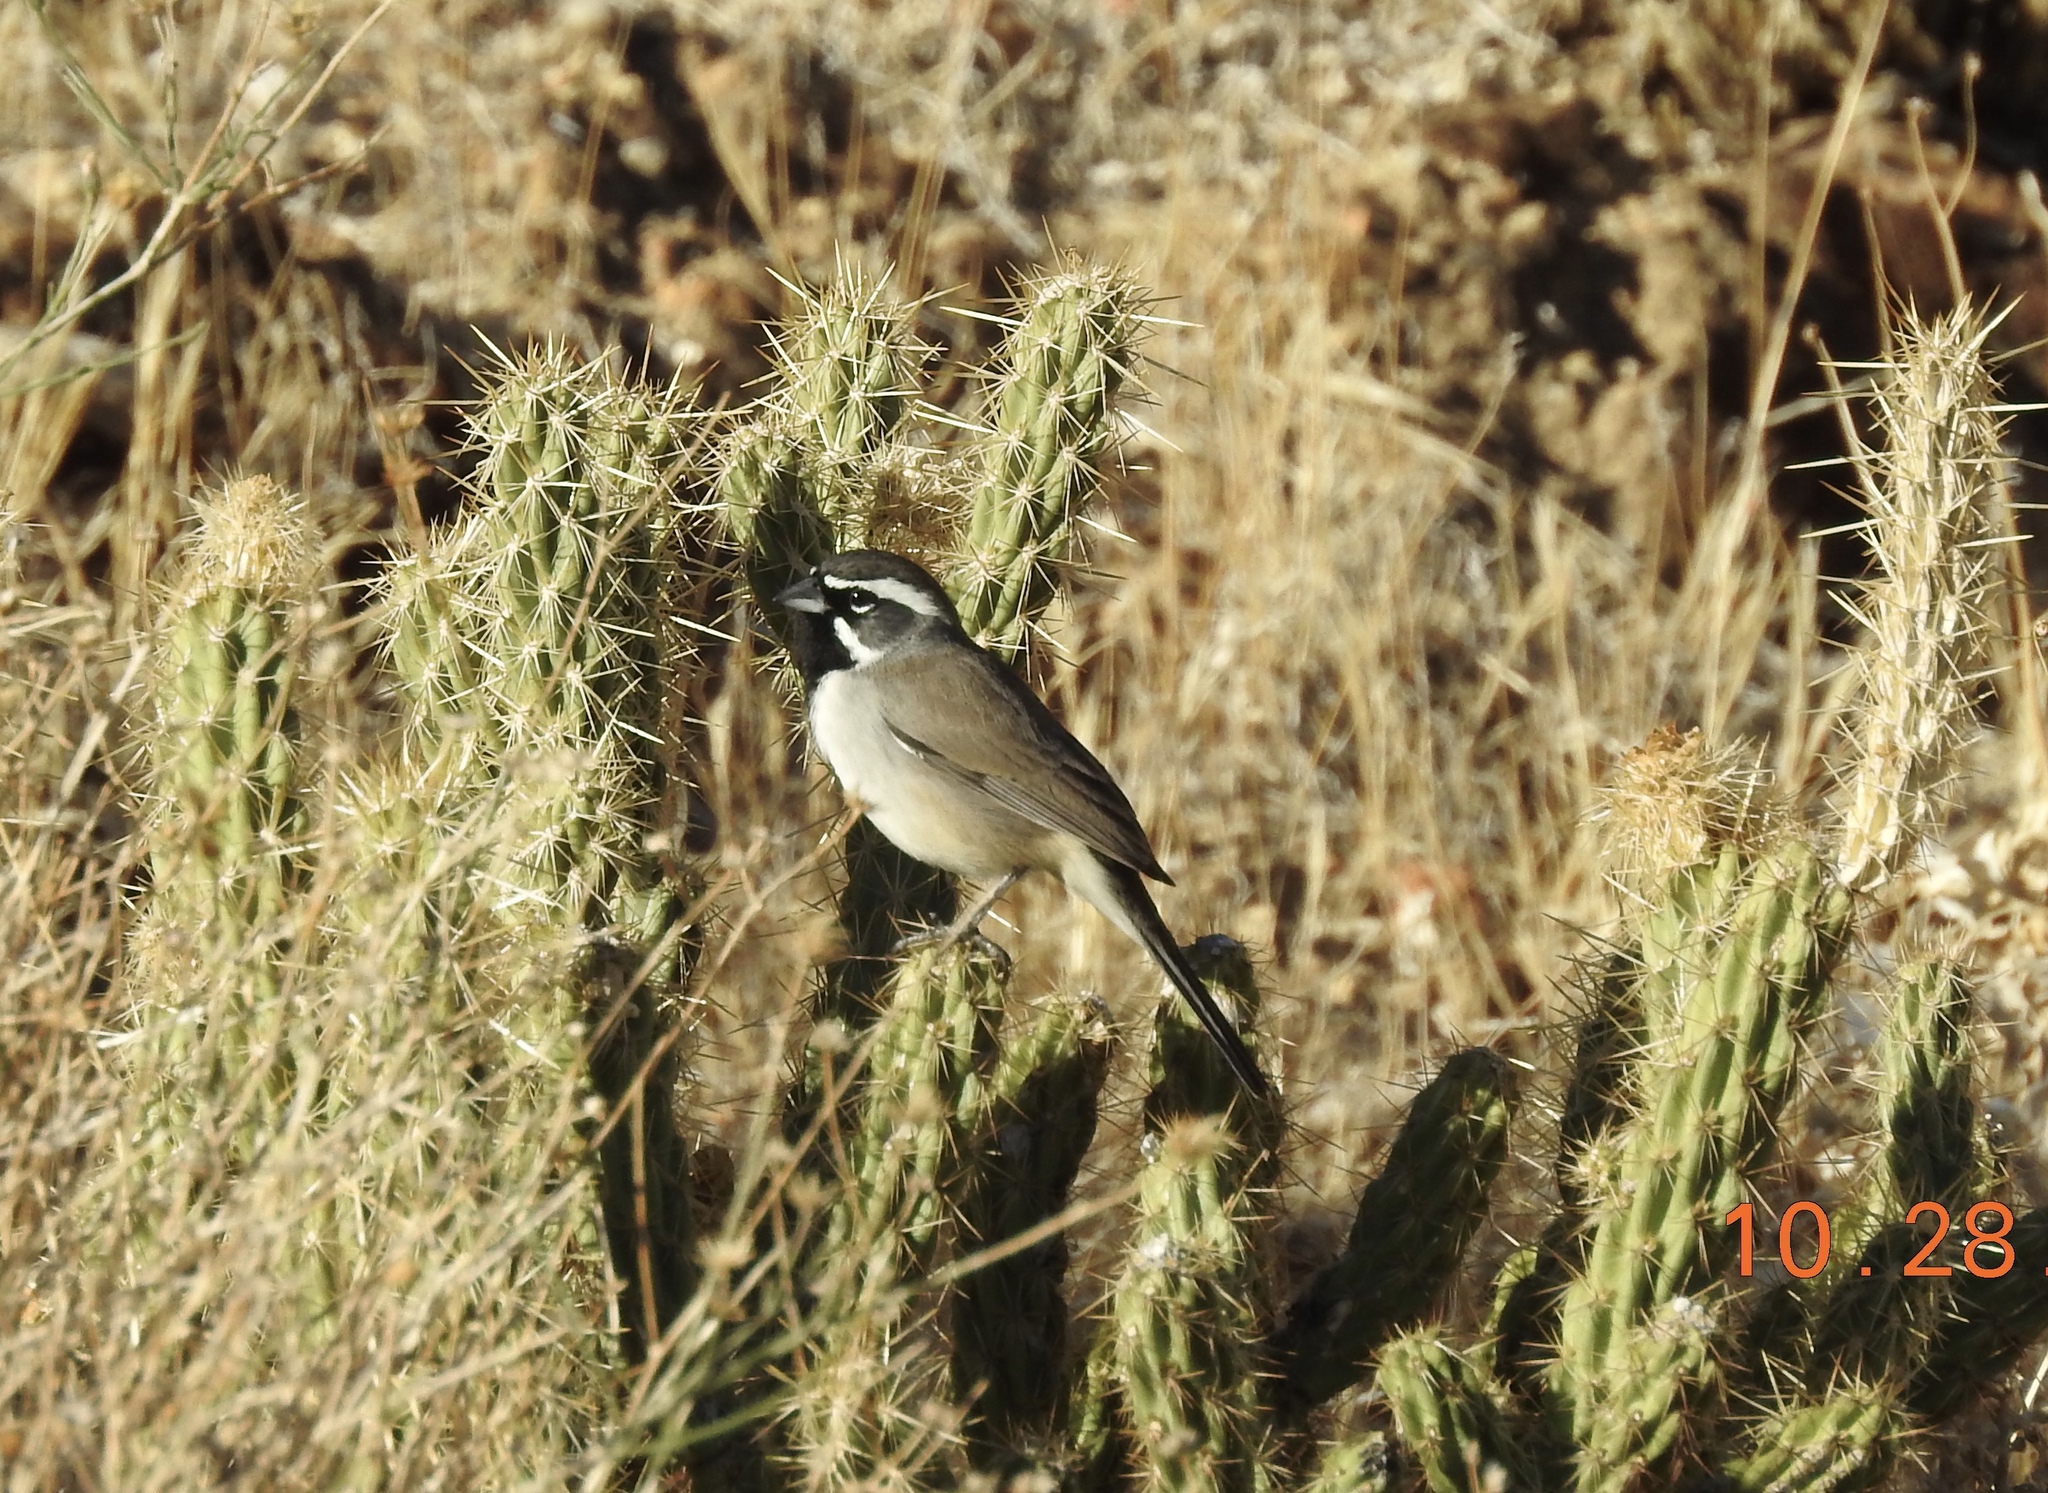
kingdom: Animalia
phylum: Chordata
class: Aves
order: Passeriformes
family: Passerellidae
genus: Amphispiza
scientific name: Amphispiza bilineata
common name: Black-throated sparrow
